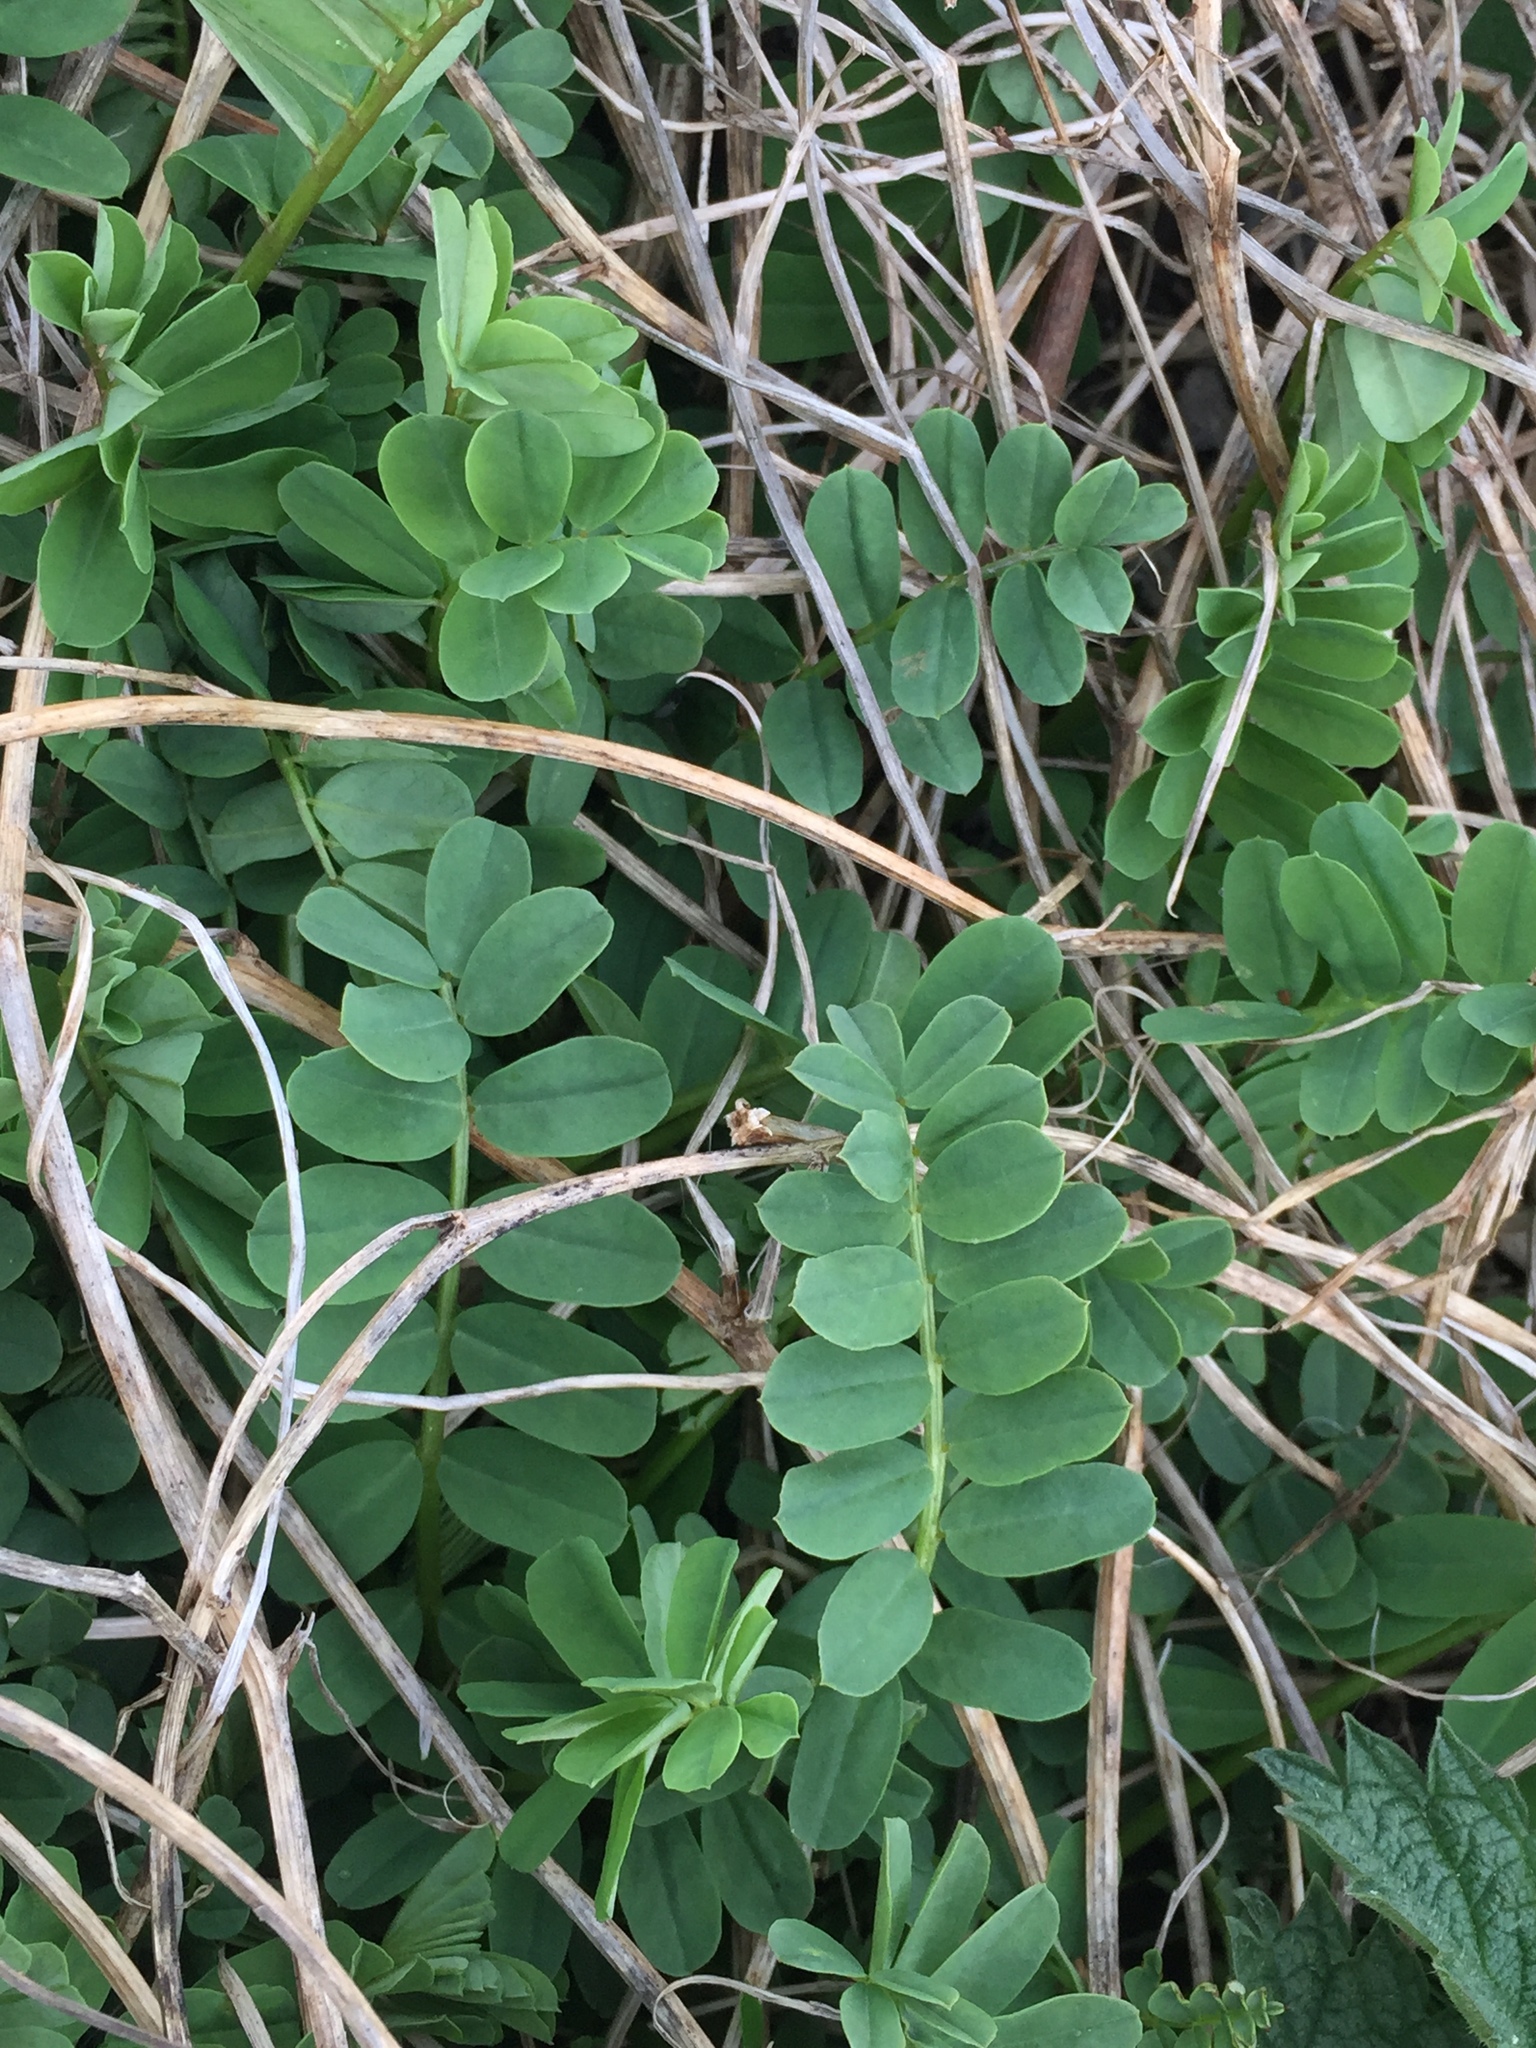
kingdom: Plantae
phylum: Tracheophyta
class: Magnoliopsida
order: Fabales
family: Fabaceae
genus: Coronilla
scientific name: Coronilla varia
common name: Crownvetch
